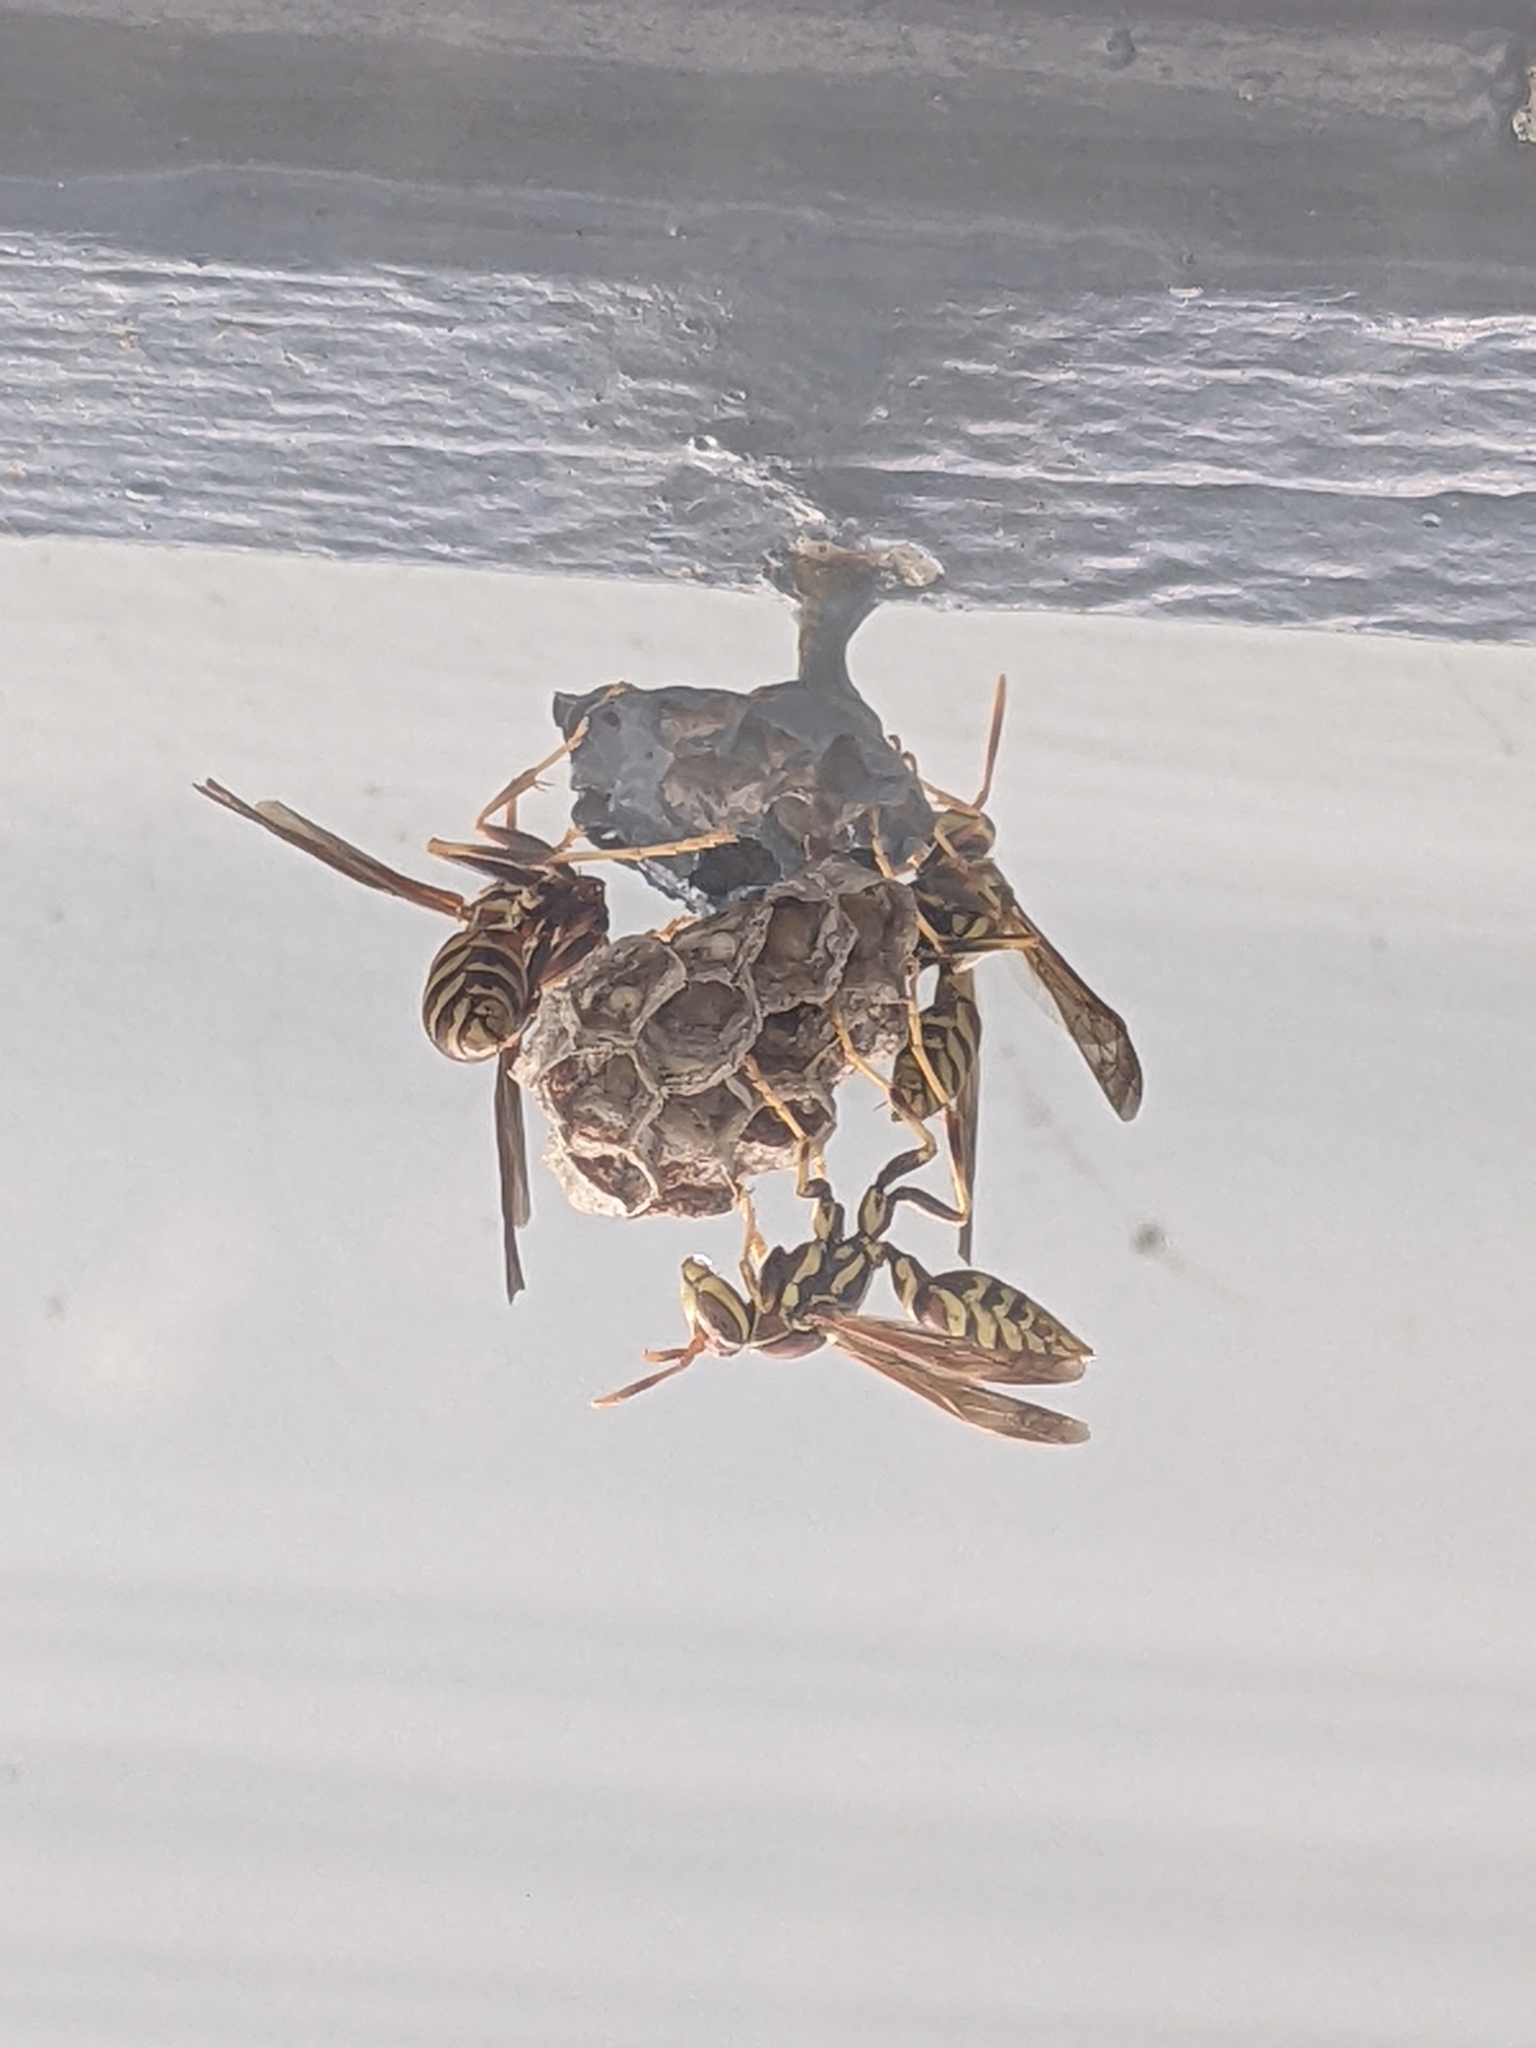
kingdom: Animalia
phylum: Arthropoda
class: Insecta
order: Hymenoptera
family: Eumenidae
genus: Polistes
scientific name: Polistes exclamans
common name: Paper wasp
